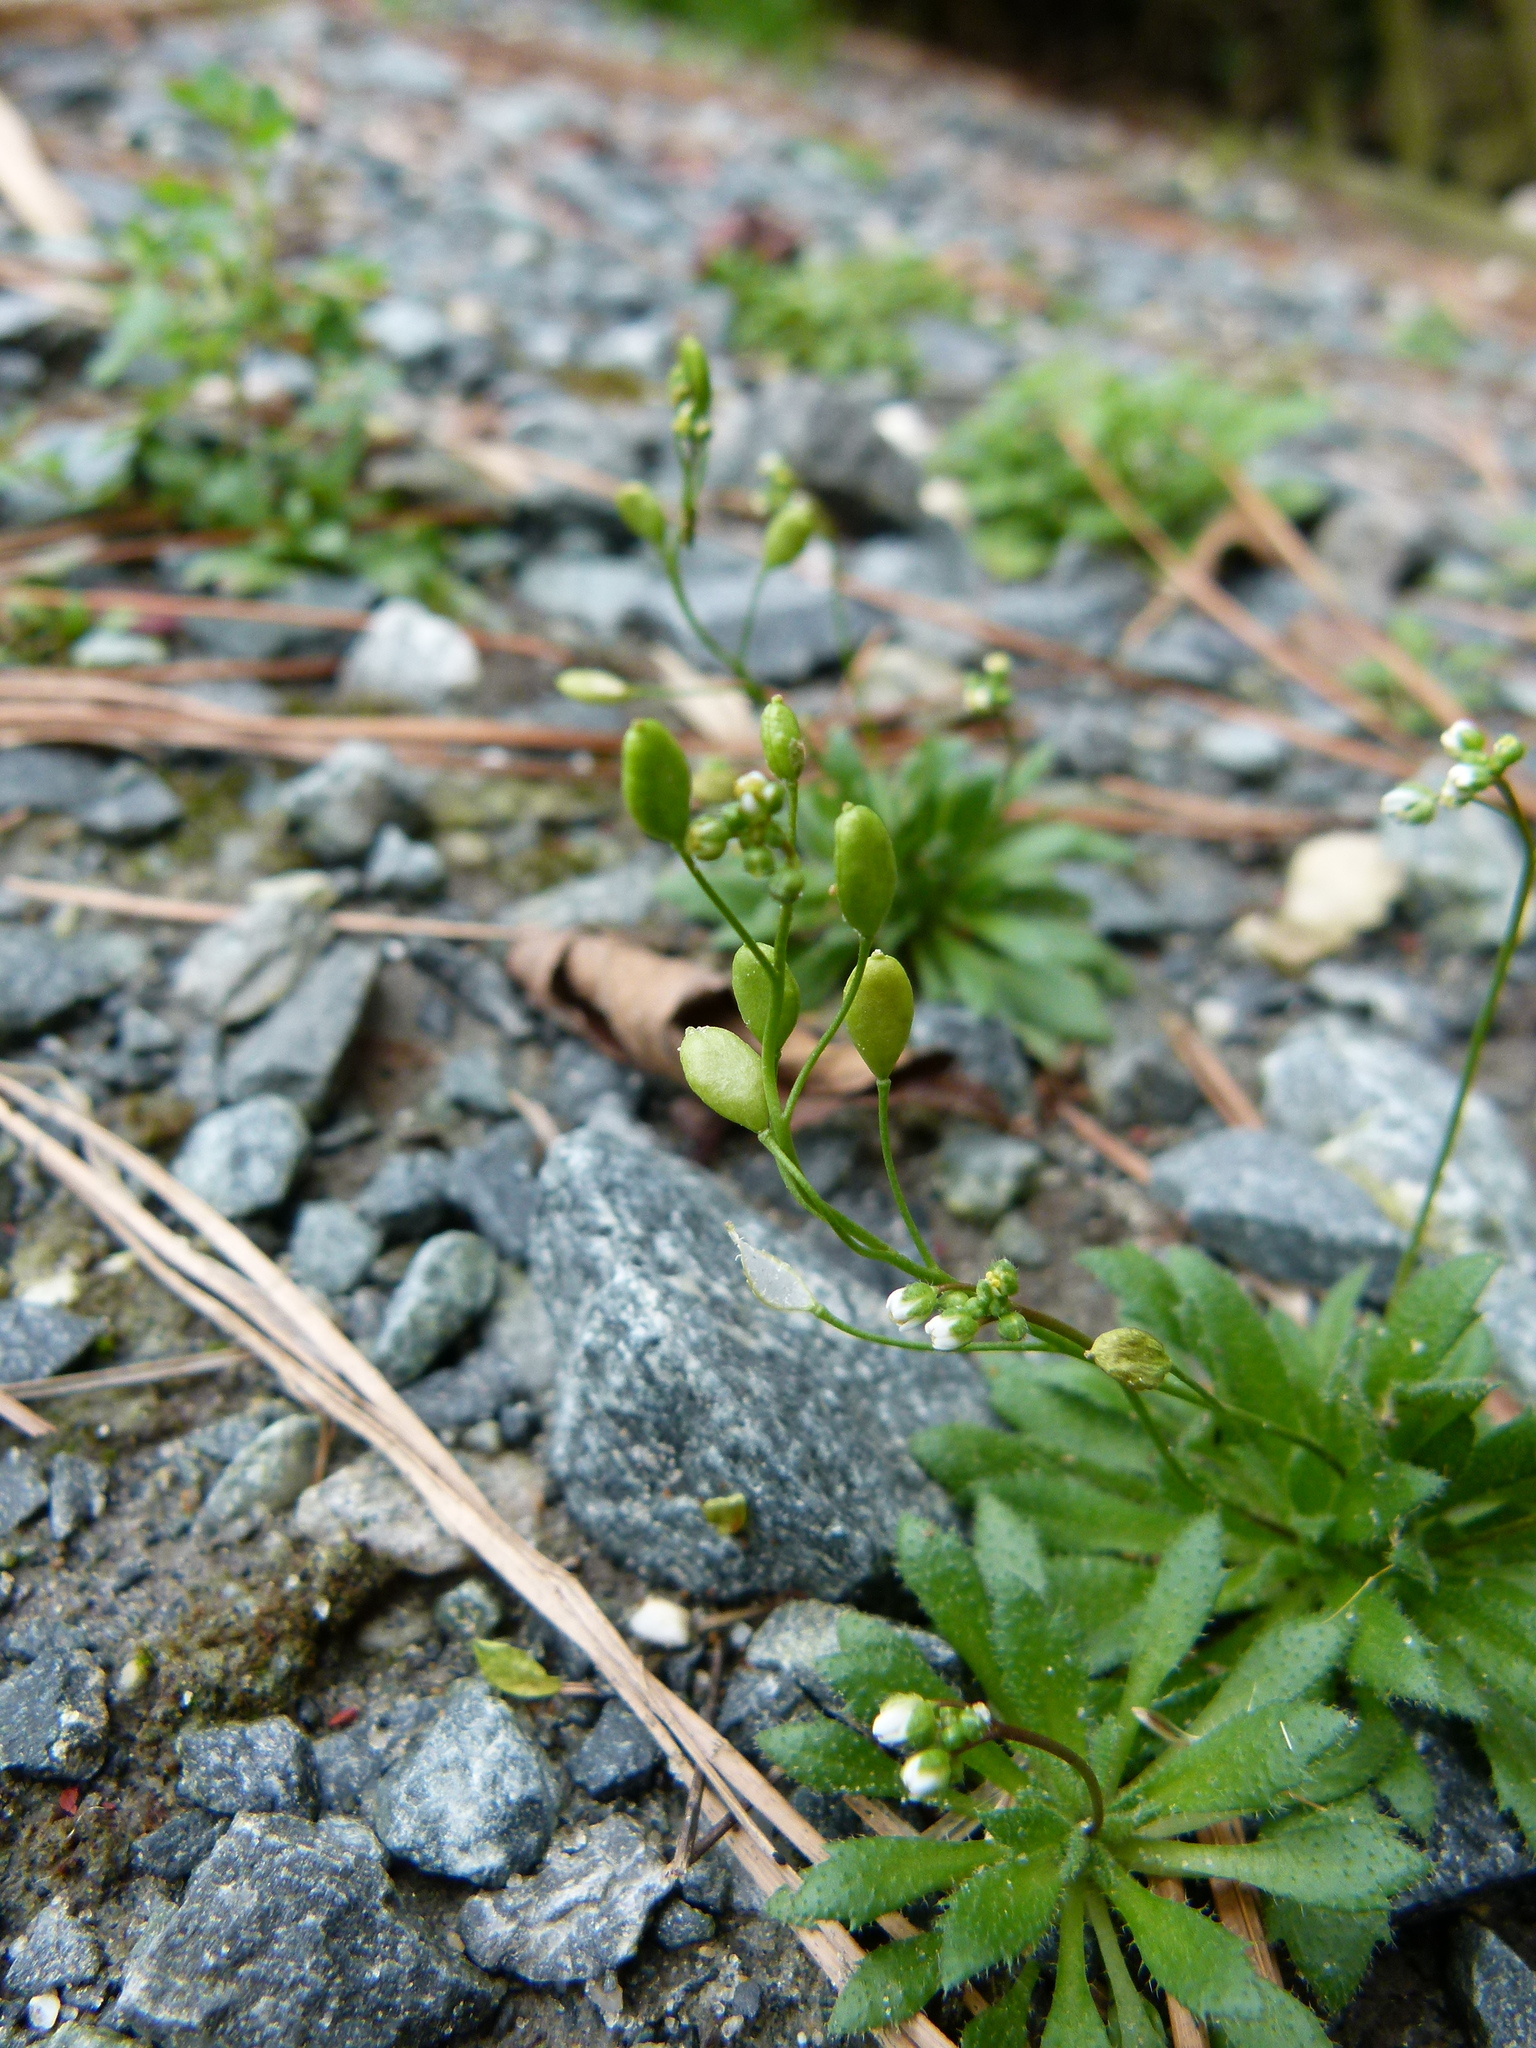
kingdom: Plantae
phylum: Tracheophyta
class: Magnoliopsida
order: Brassicales
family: Brassicaceae
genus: Draba
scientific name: Draba verna
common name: Spring draba
